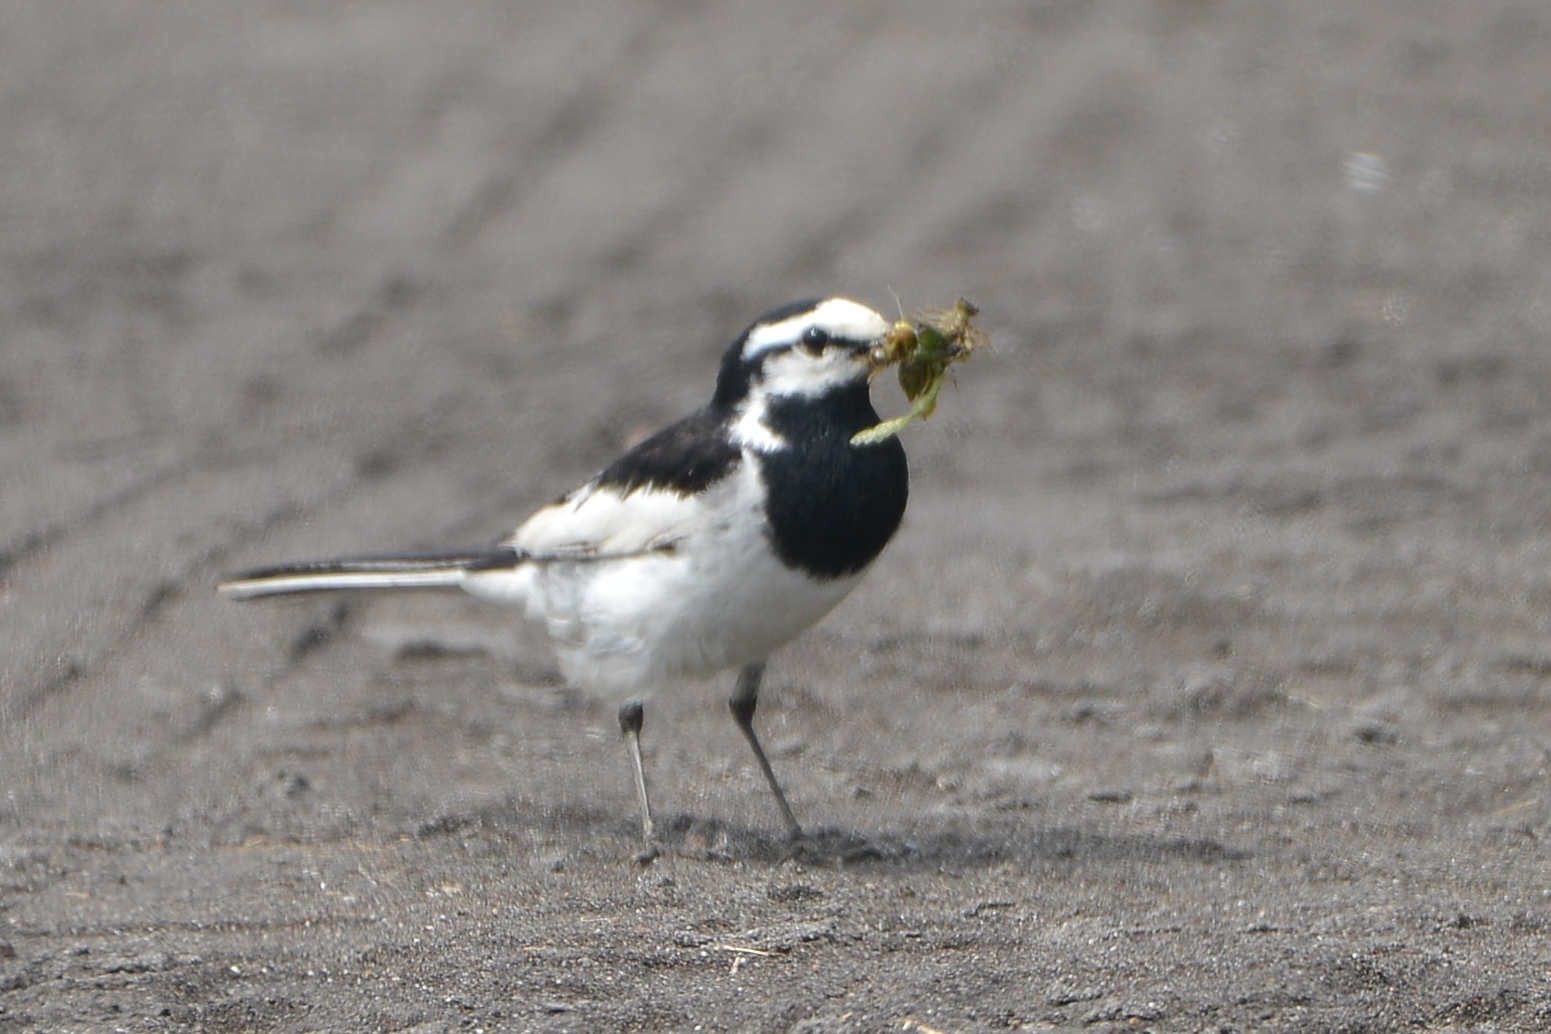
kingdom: Animalia
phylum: Chordata
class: Aves
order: Passeriformes
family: Motacillidae
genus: Motacilla
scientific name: Motacilla alba
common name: White wagtail
